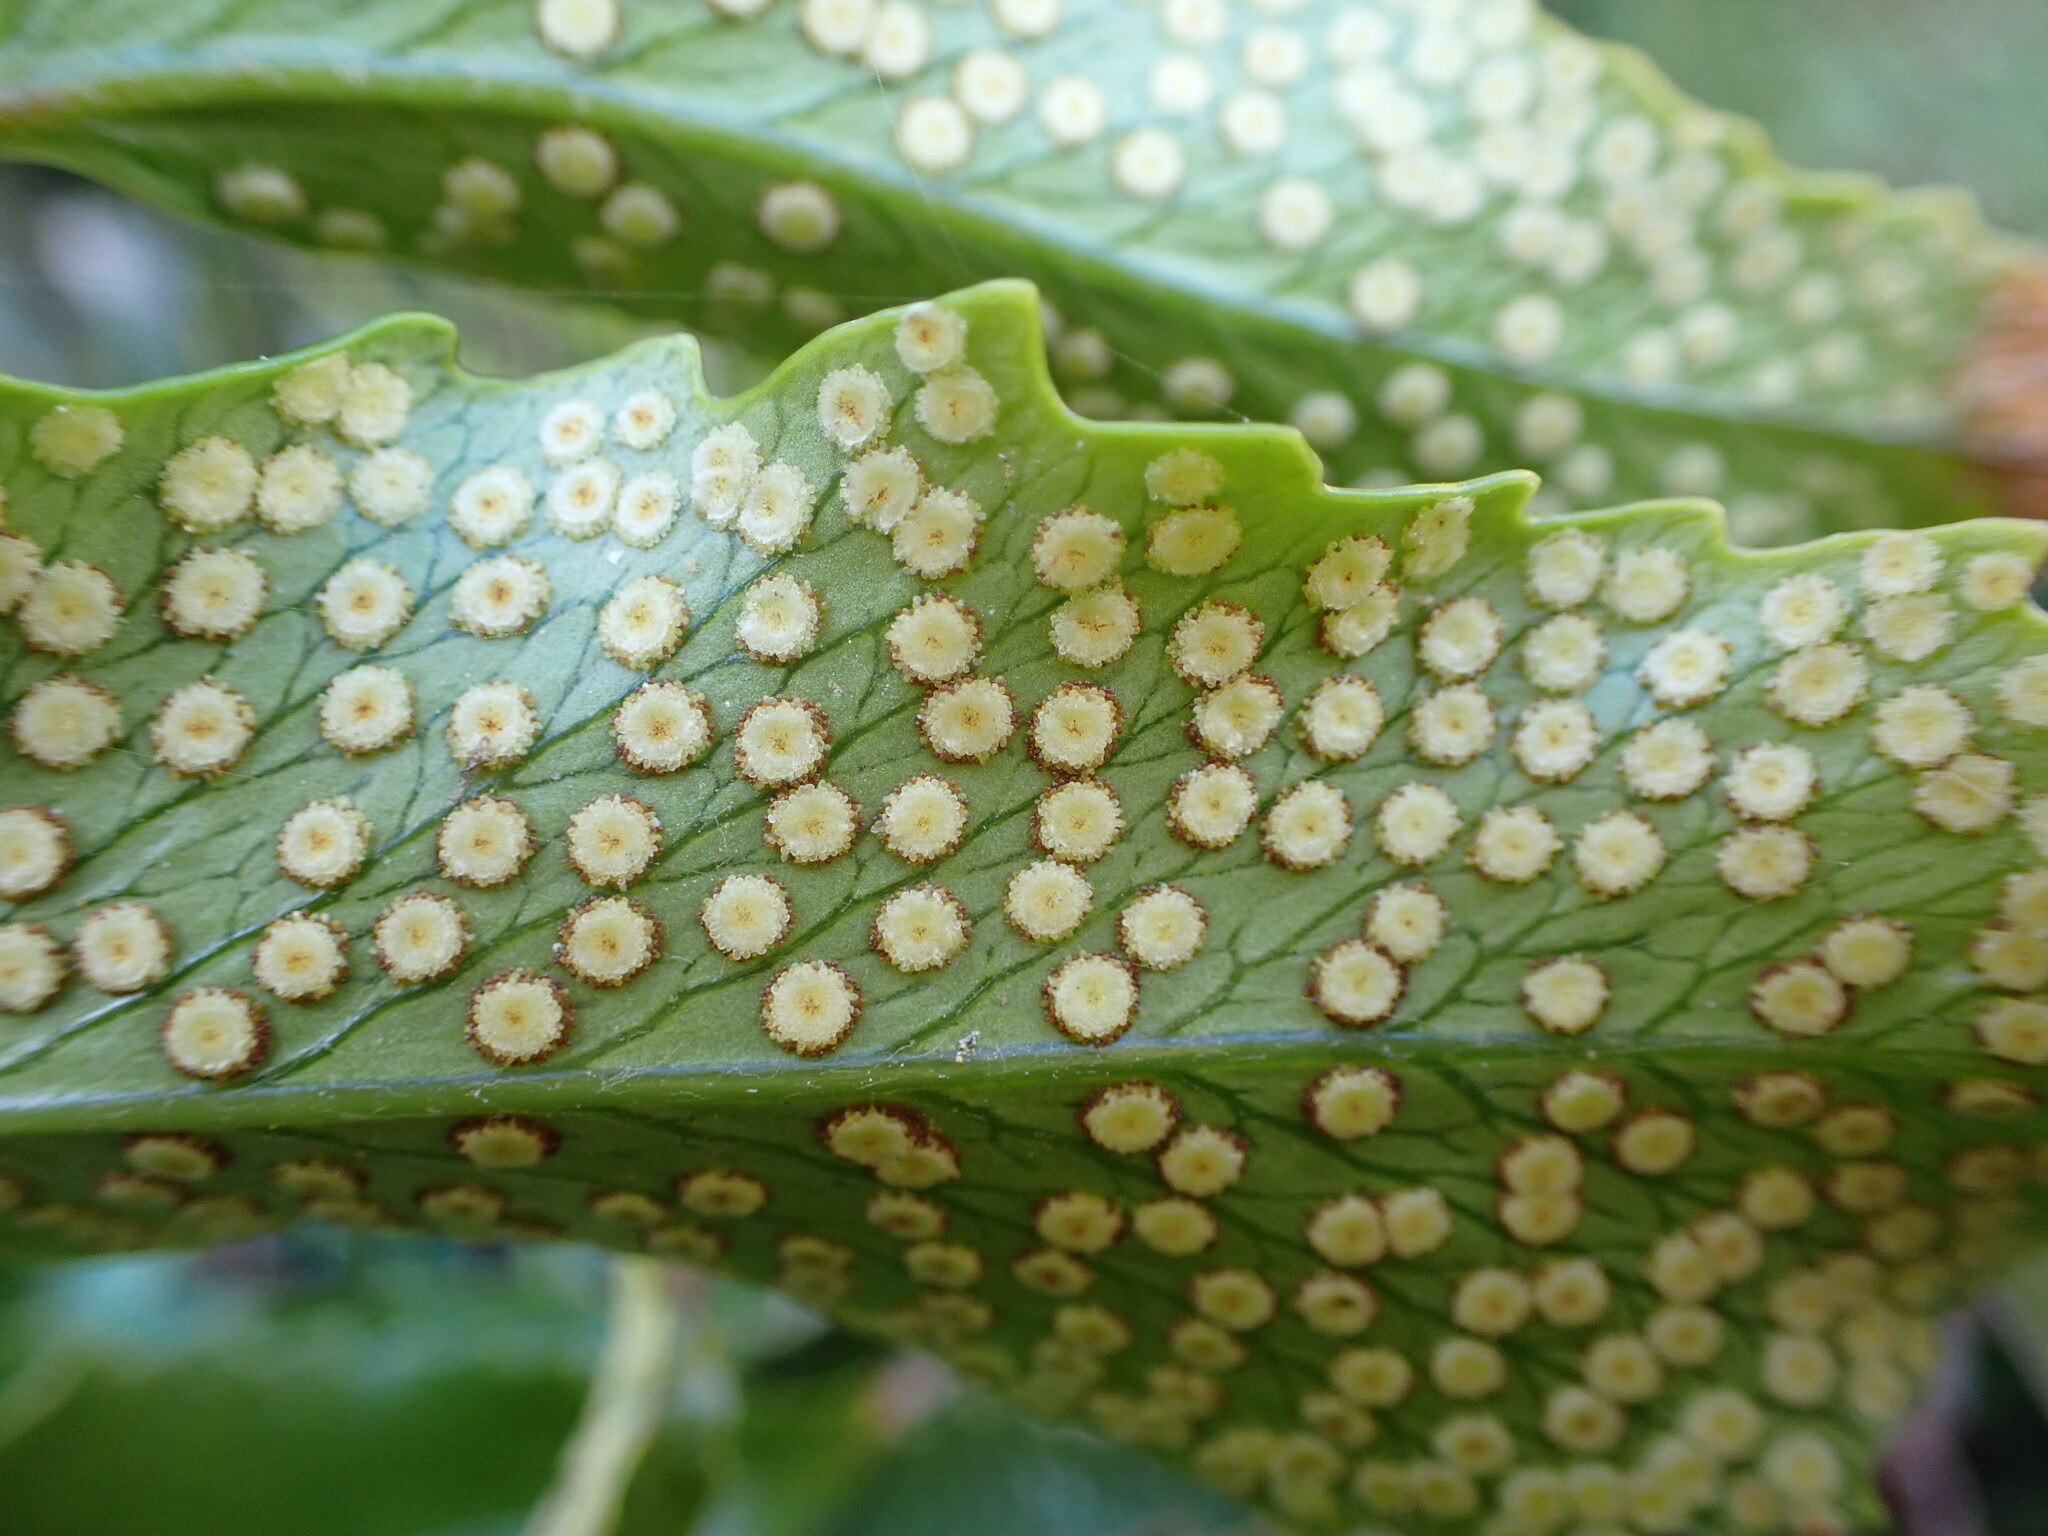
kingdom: Plantae
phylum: Tracheophyta
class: Polypodiopsida
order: Polypodiales
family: Dryopteridaceae
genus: Cyrtomium
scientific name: Cyrtomium falcatum
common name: House holly-fern
